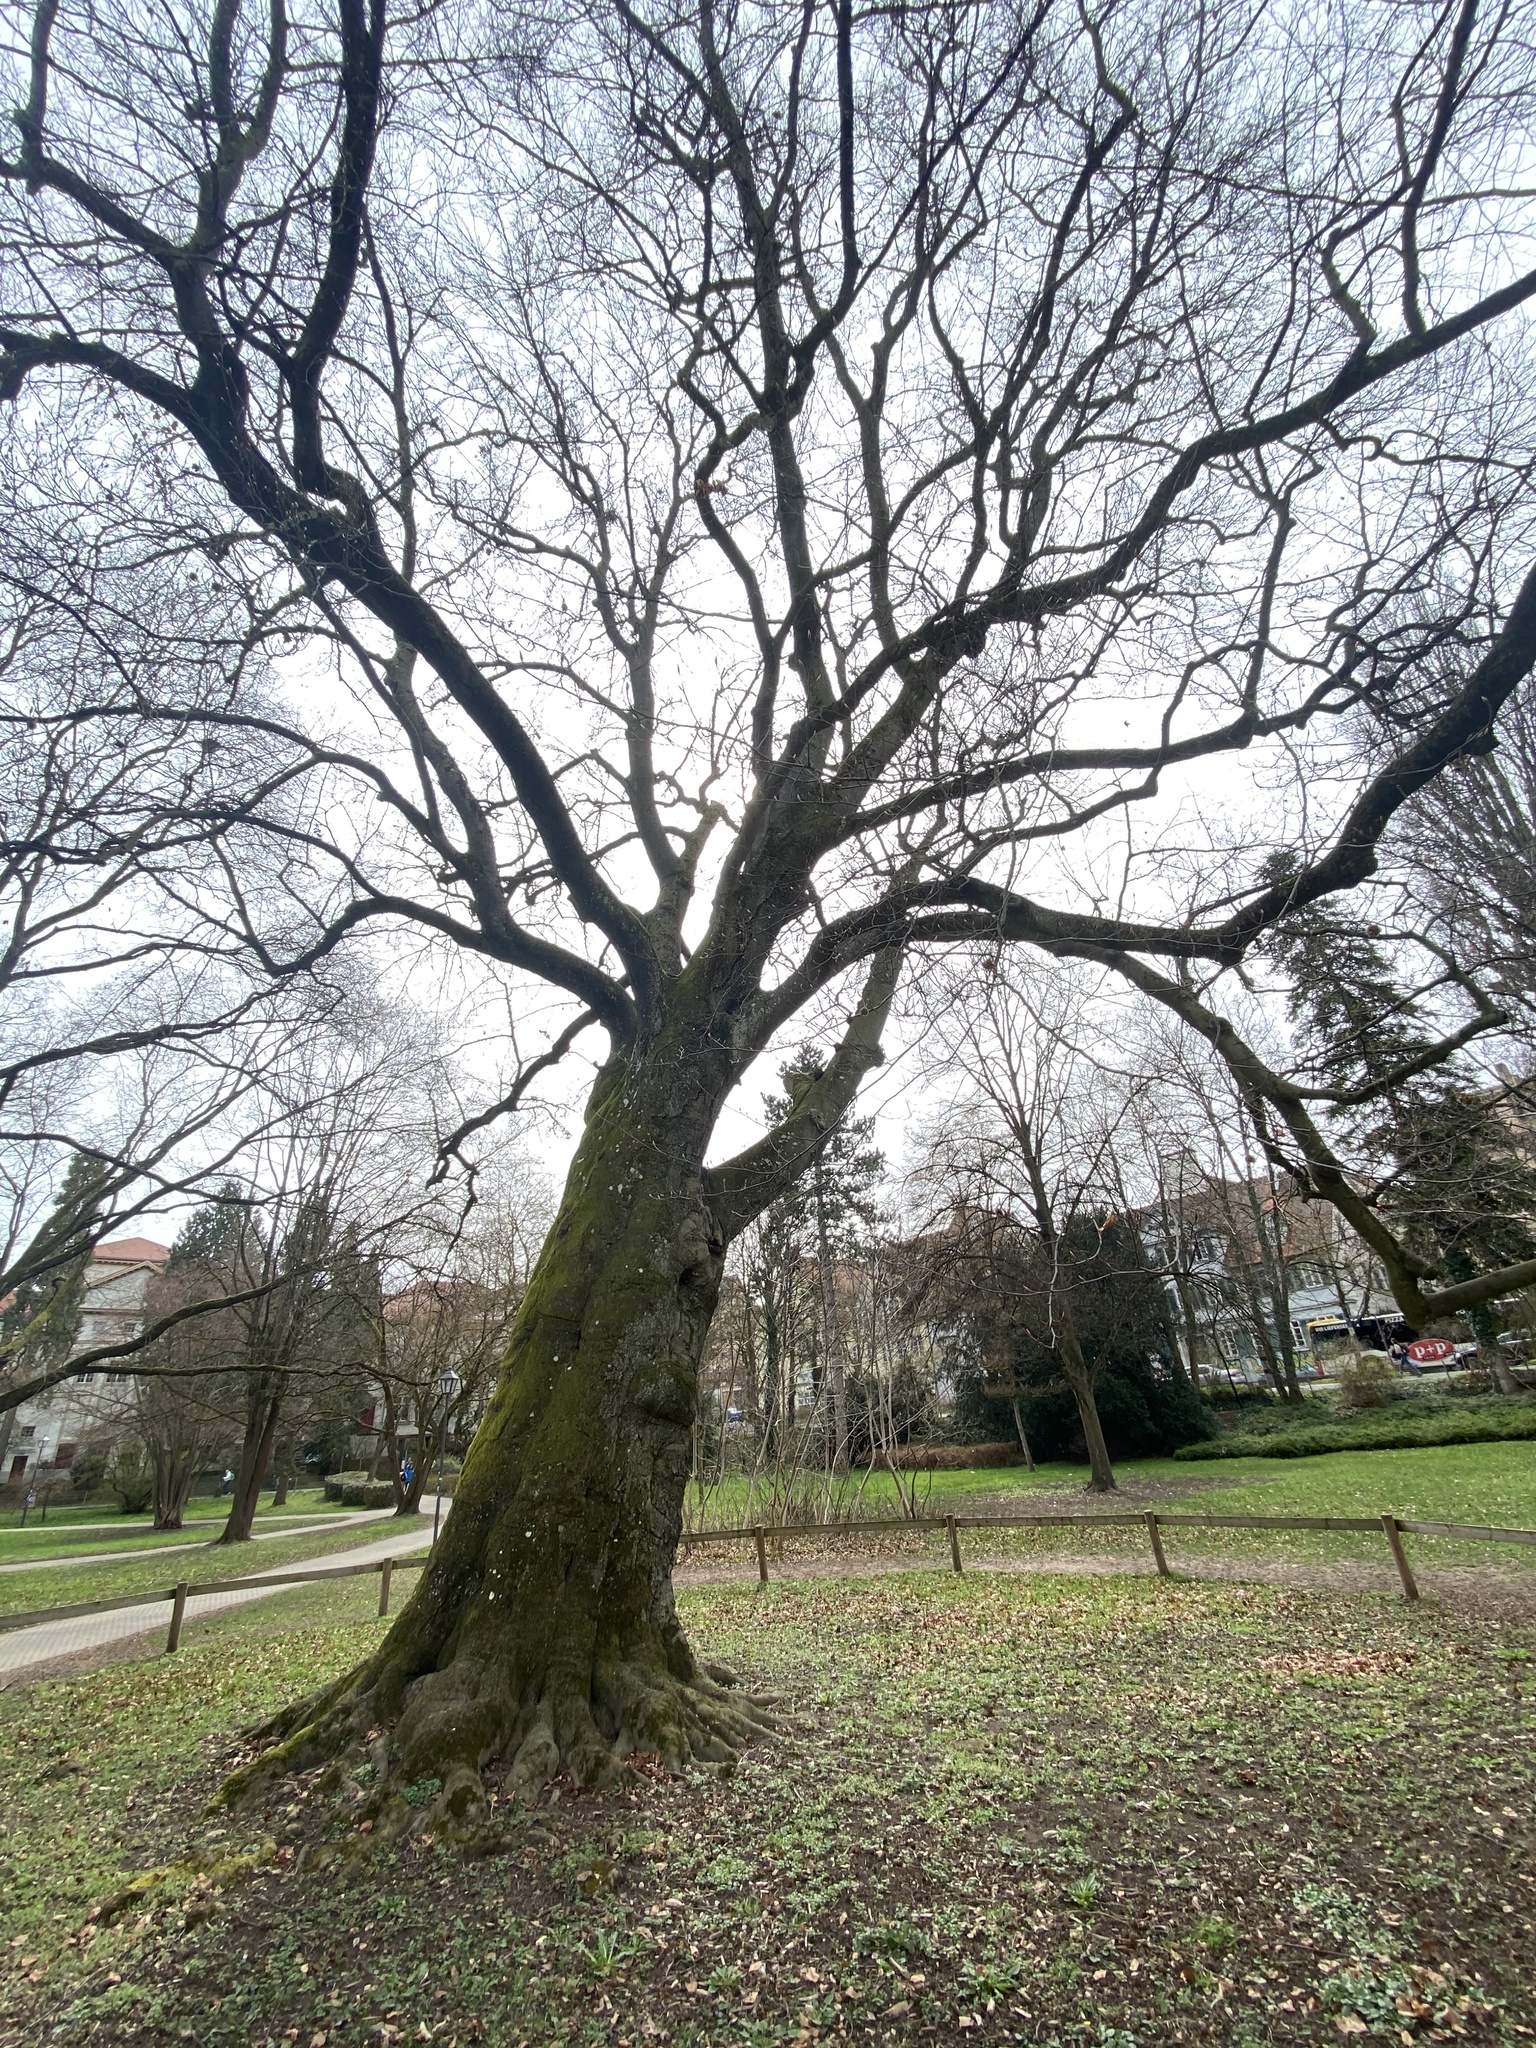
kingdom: Plantae
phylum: Tracheophyta
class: Magnoliopsida
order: Fagales
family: Fagaceae
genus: Fagus
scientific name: Fagus sylvatica
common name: Beech
